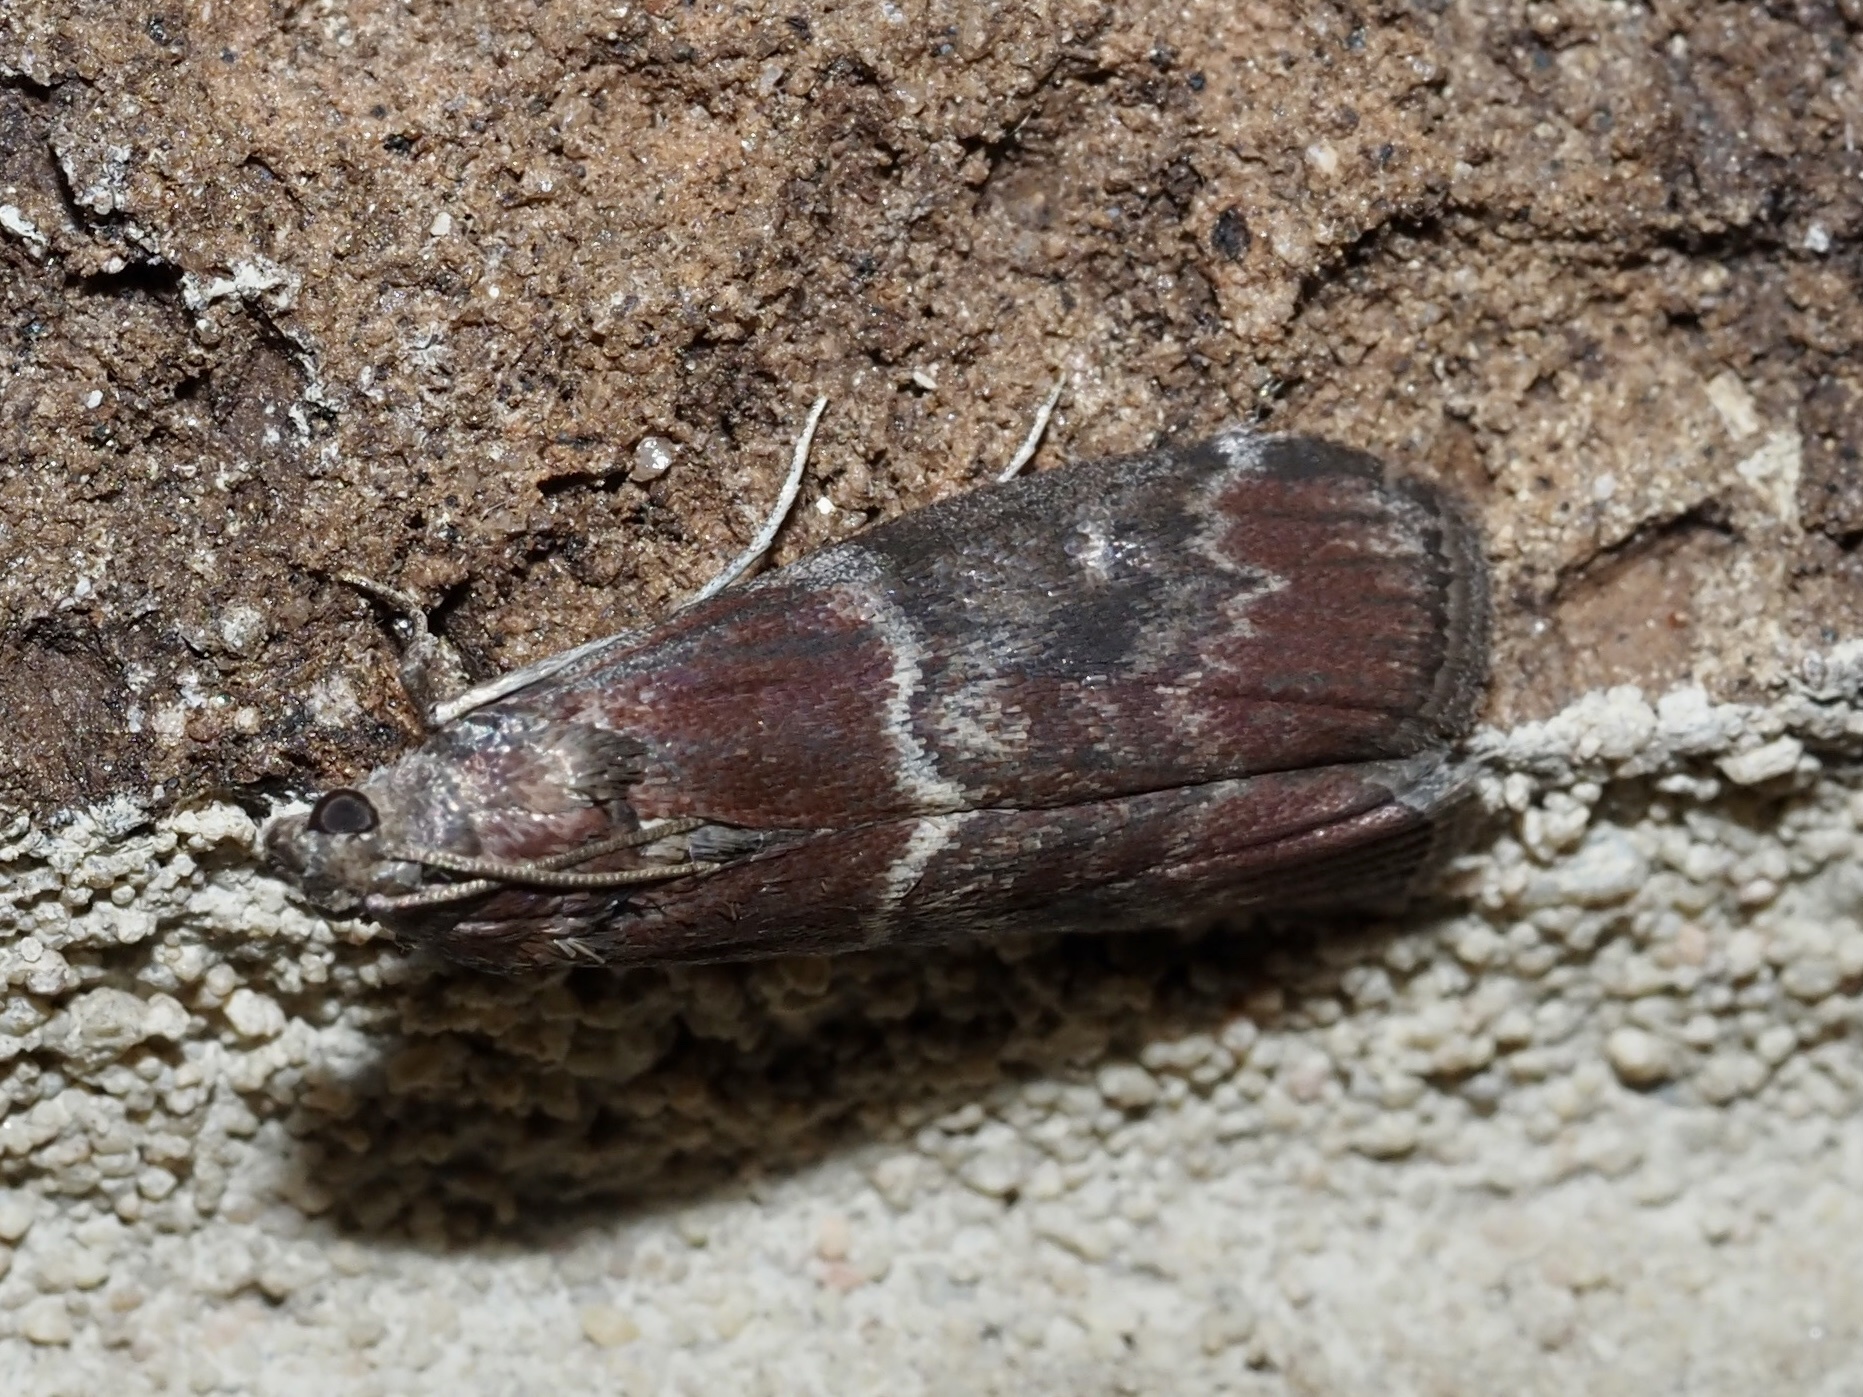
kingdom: Animalia
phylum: Arthropoda
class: Insecta
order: Lepidoptera
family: Pyralidae
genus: Euzophera
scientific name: Euzophera ostricolorella
